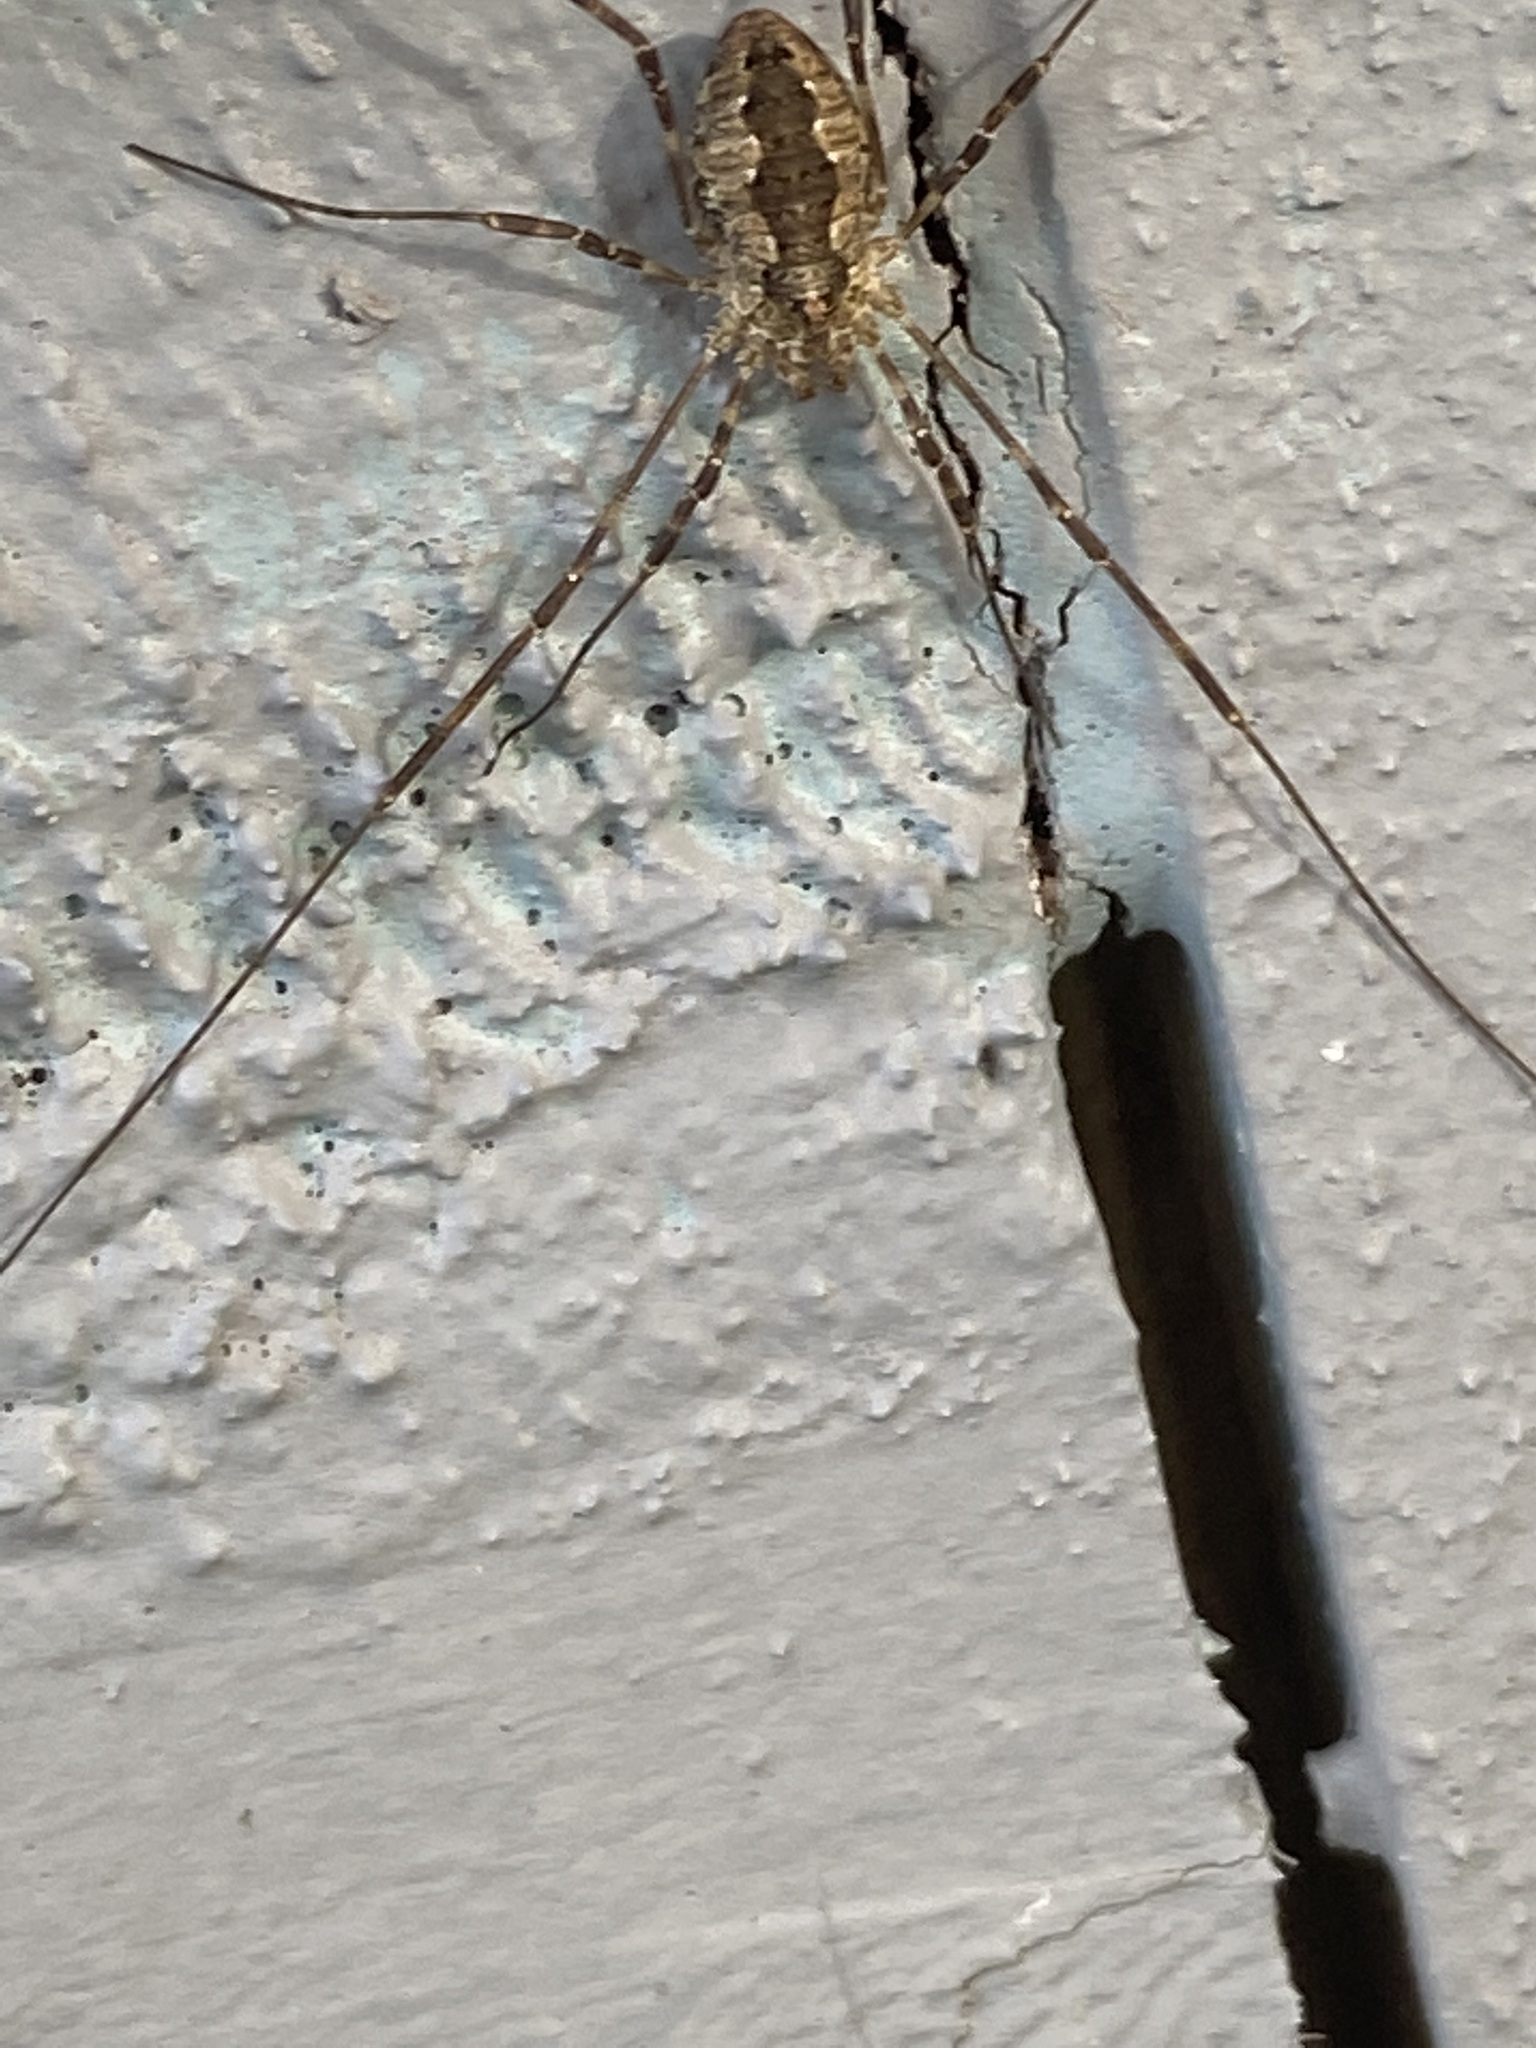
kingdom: Animalia
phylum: Arthropoda
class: Arachnida
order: Opiliones
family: Phalangiidae
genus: Odiellus
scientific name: Odiellus pictus
